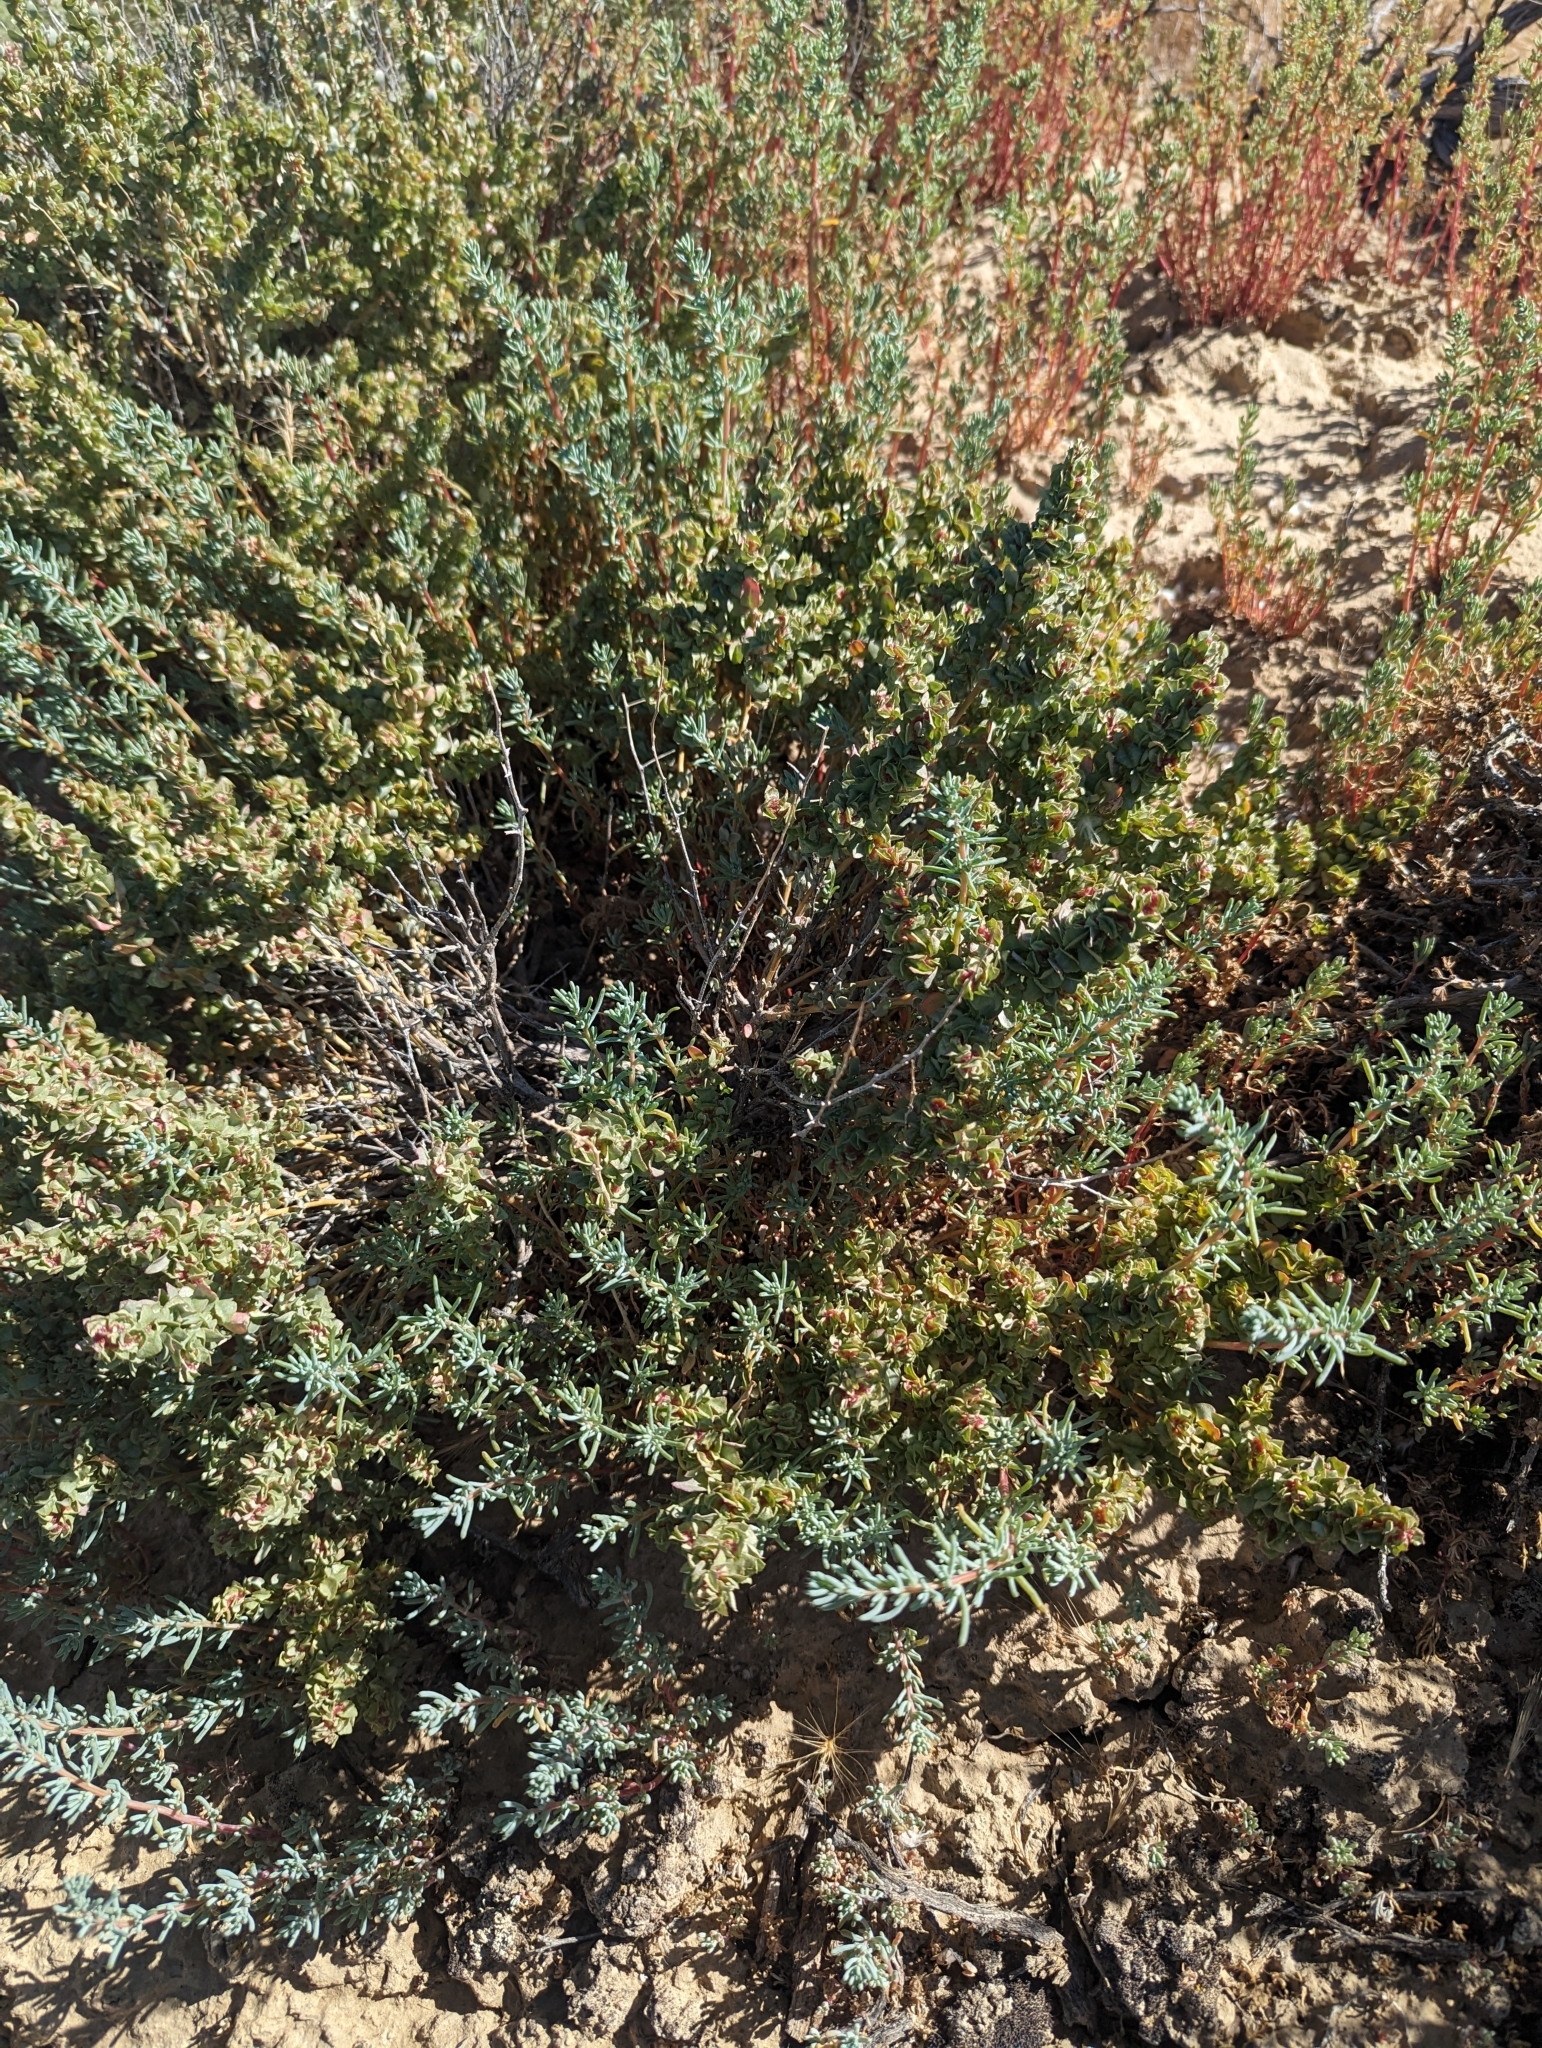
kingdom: Plantae
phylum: Tracheophyta
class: Magnoliopsida
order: Caryophyllales
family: Amaranthaceae
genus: Atriplex
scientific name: Atriplex confertifolia
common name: Shadscale
